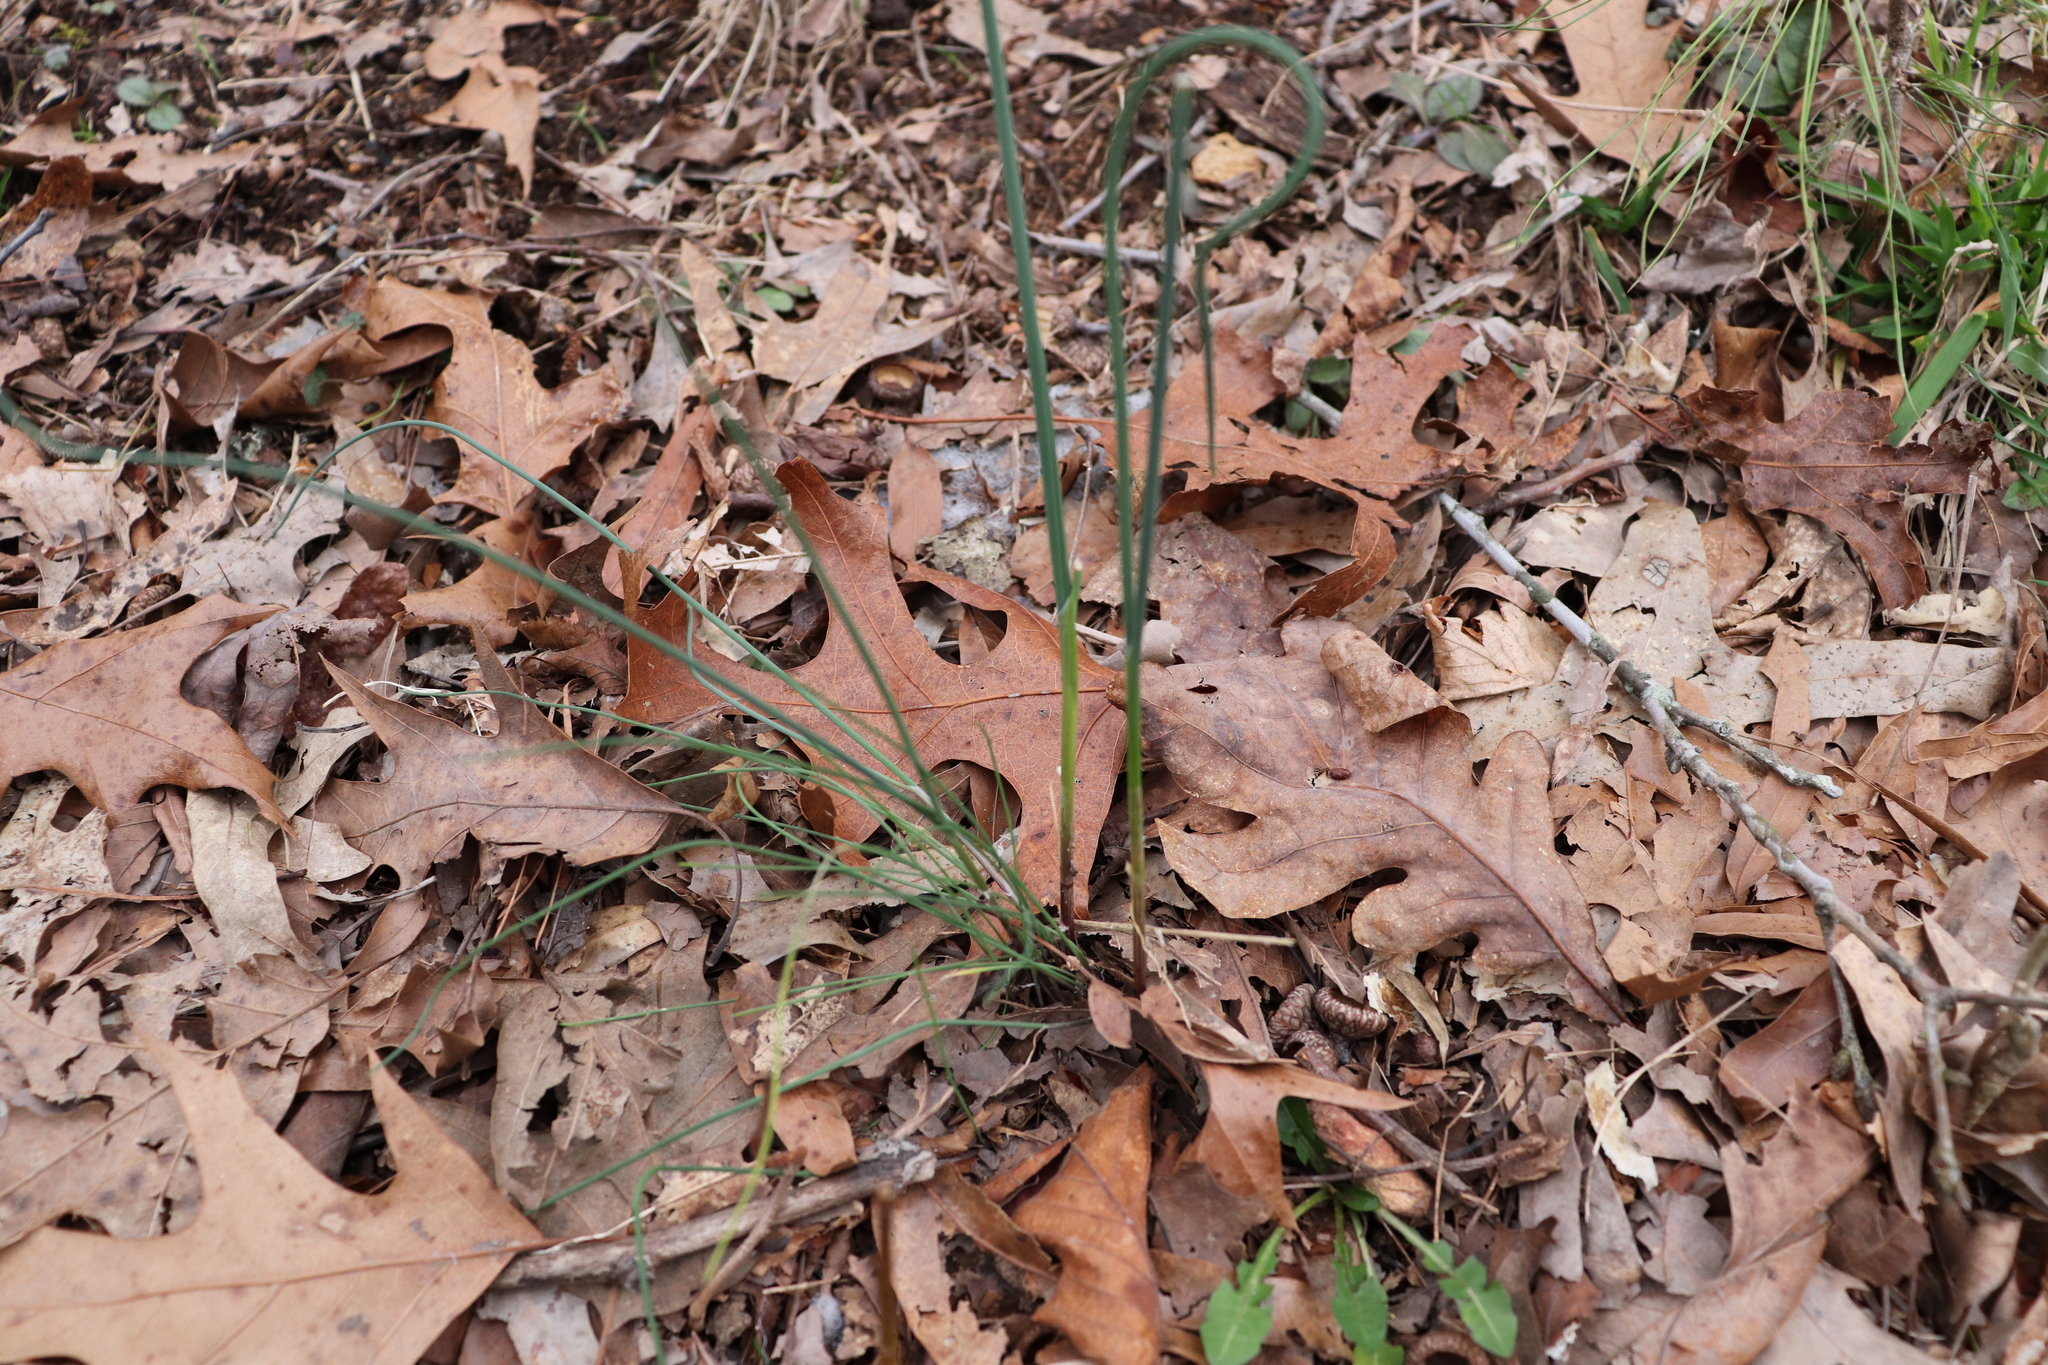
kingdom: Plantae
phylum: Tracheophyta
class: Liliopsida
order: Asparagales
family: Amaryllidaceae
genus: Allium
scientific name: Allium vineale
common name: Crow garlic
